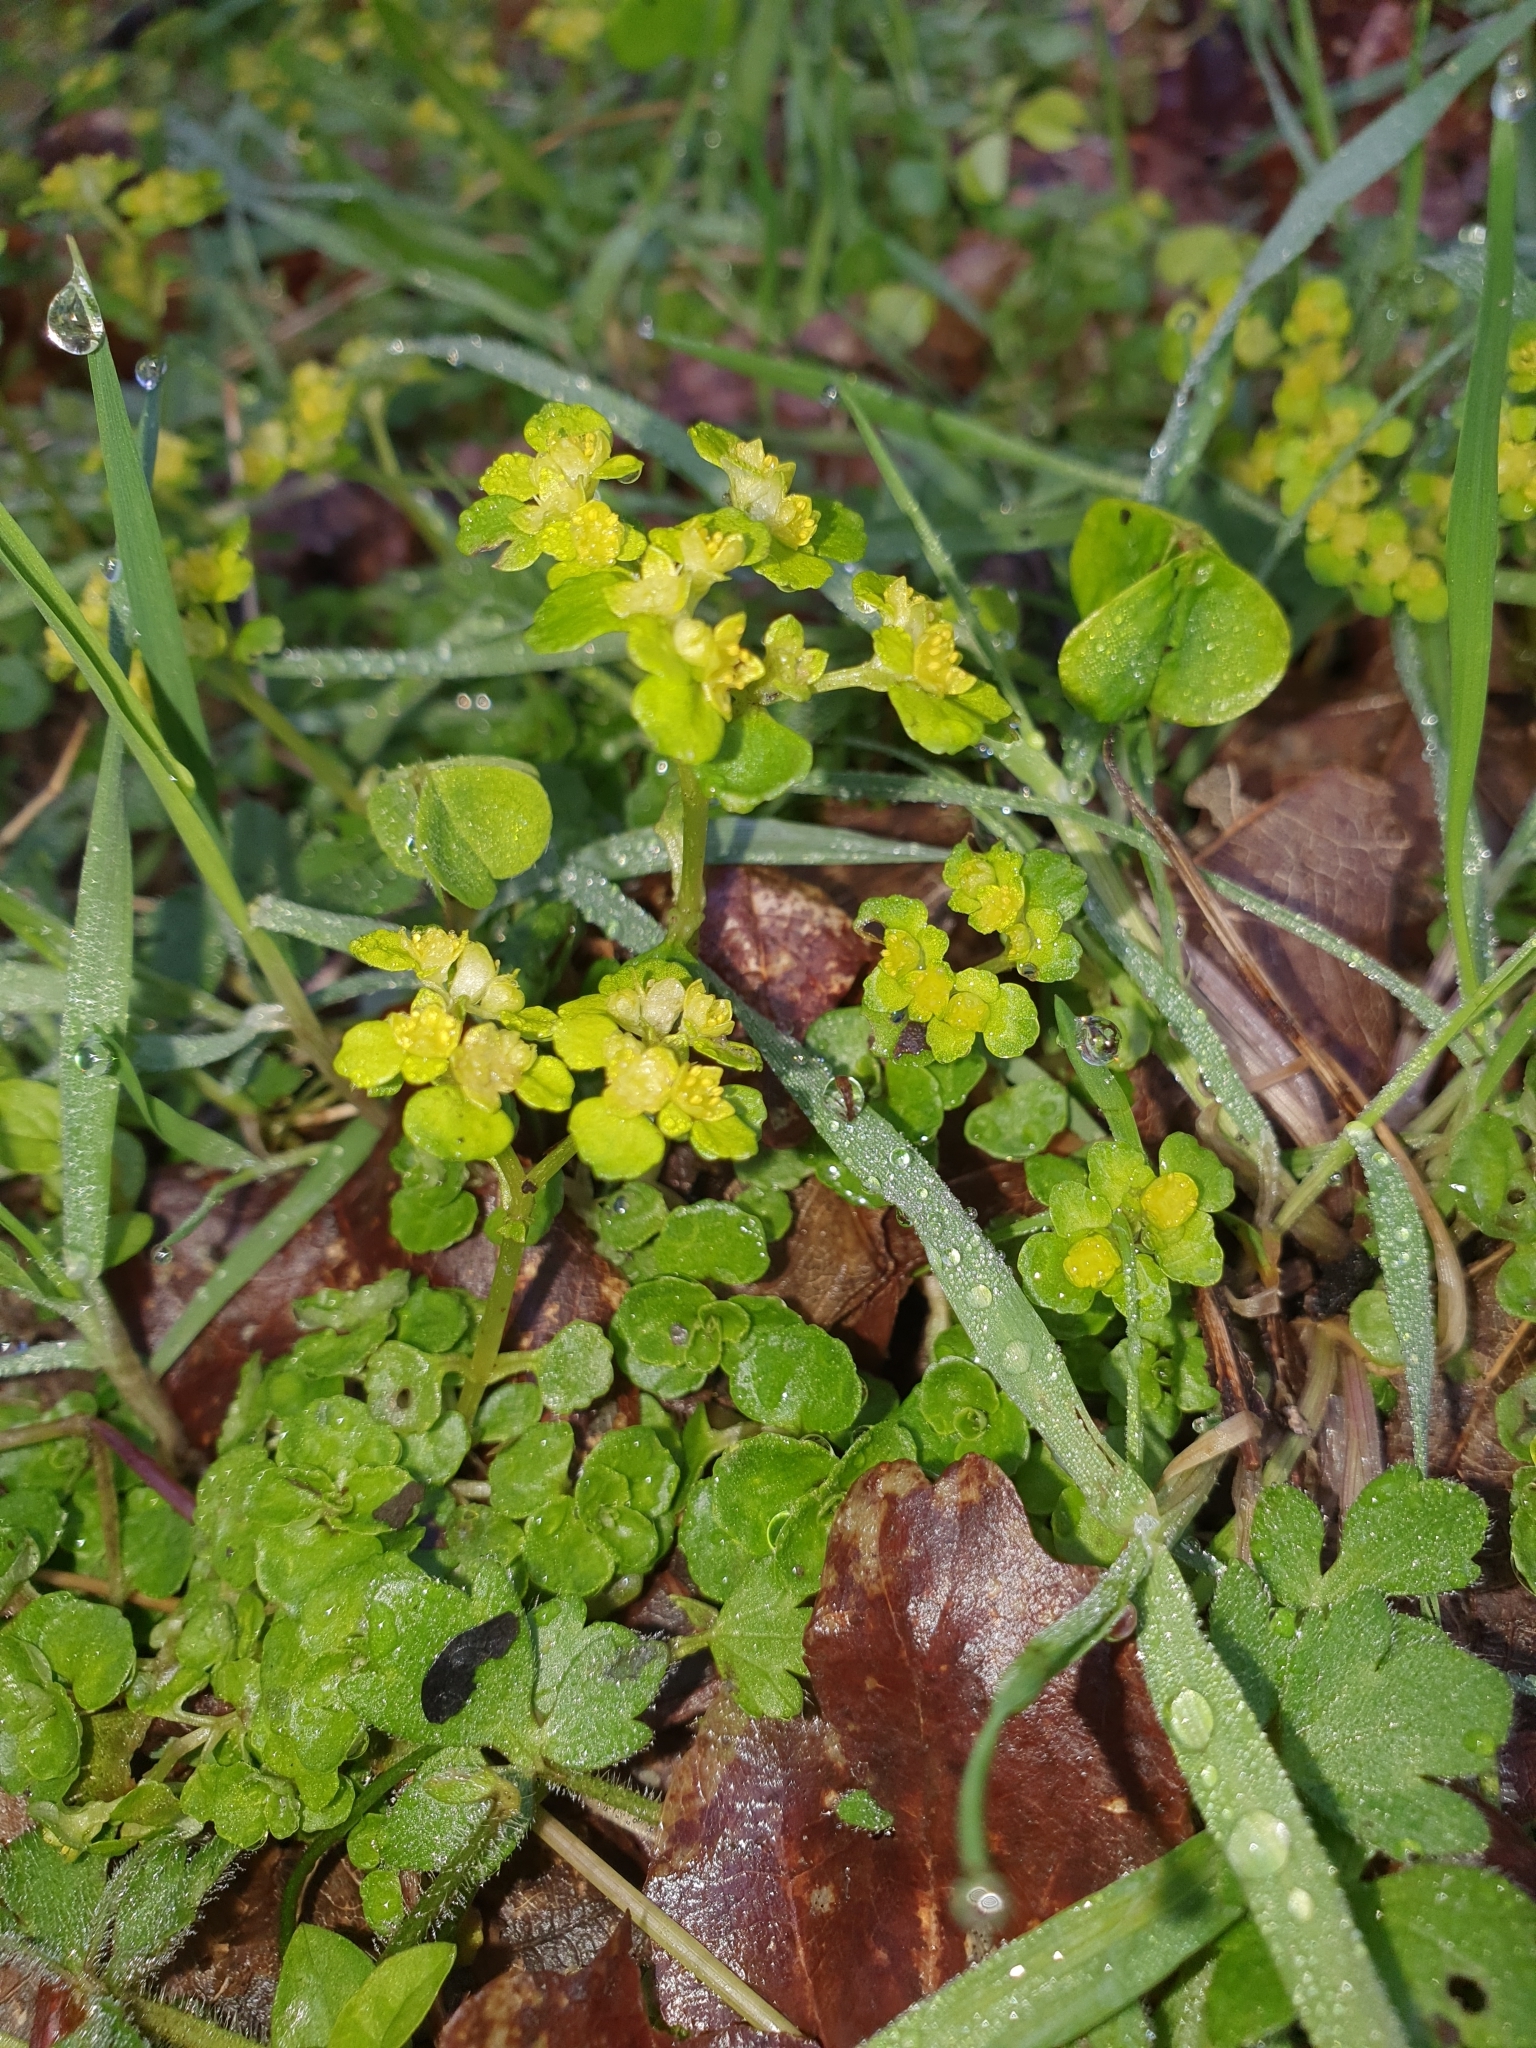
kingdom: Plantae
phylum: Tracheophyta
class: Magnoliopsida
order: Saxifragales
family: Saxifragaceae
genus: Chrysosplenium
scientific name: Chrysosplenium oppositifolium
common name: Opposite-leaved golden-saxifrage
